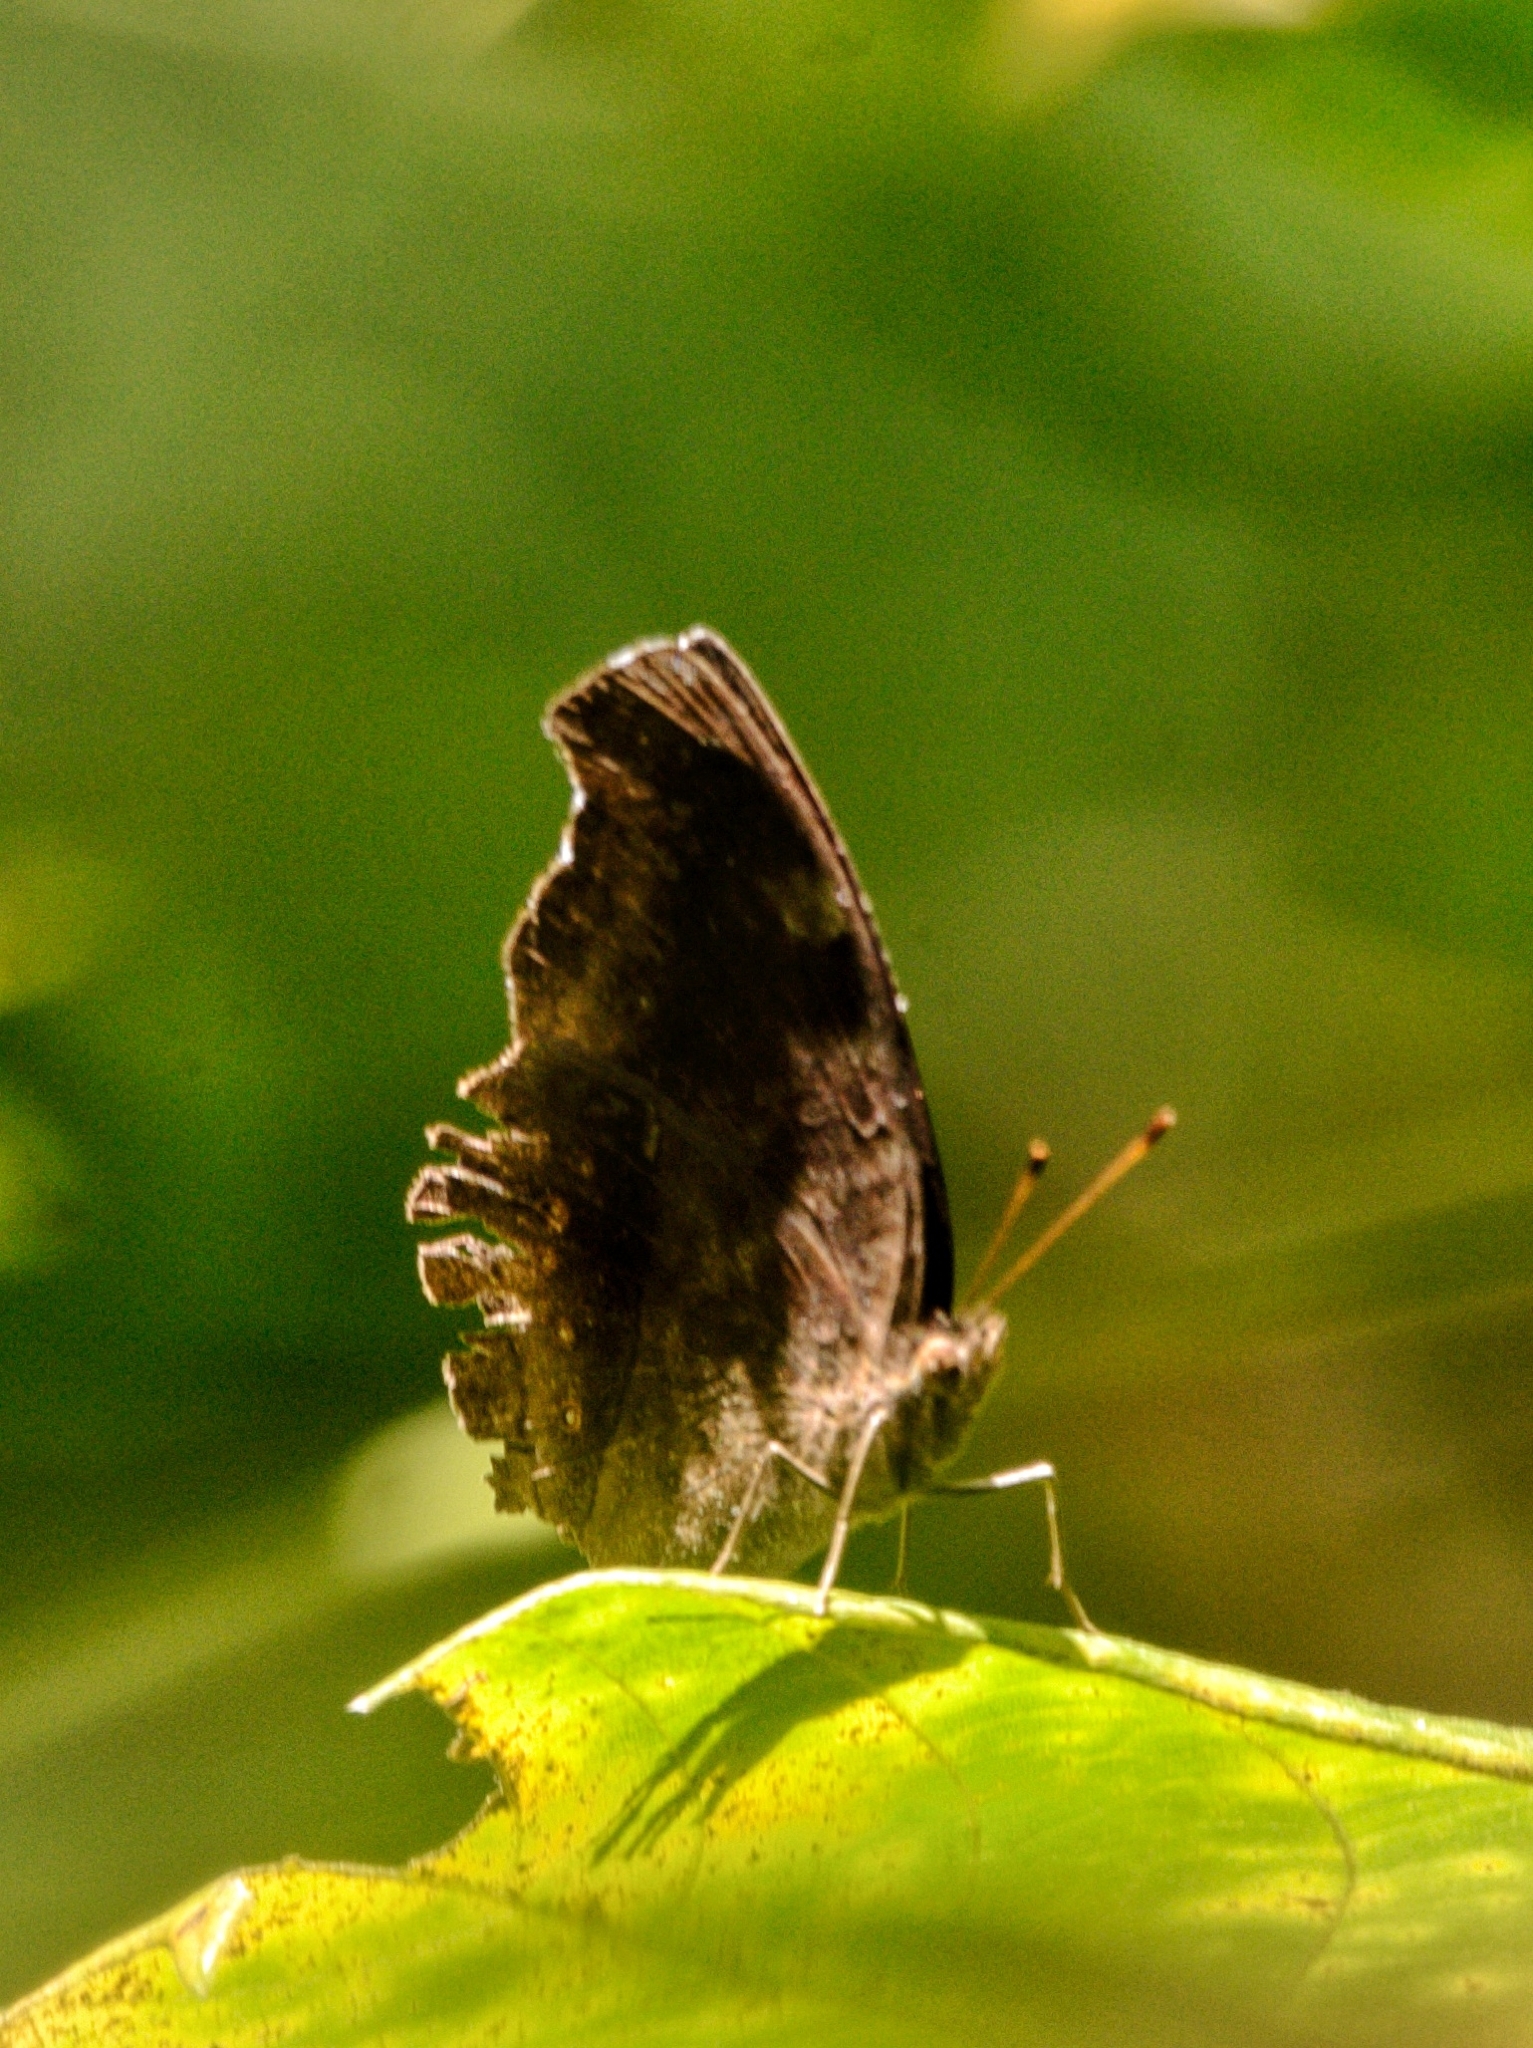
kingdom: Animalia
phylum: Arthropoda
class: Insecta
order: Lepidoptera
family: Nymphalidae
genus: Junonia
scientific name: Junonia iphita
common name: Chocolate pansy
